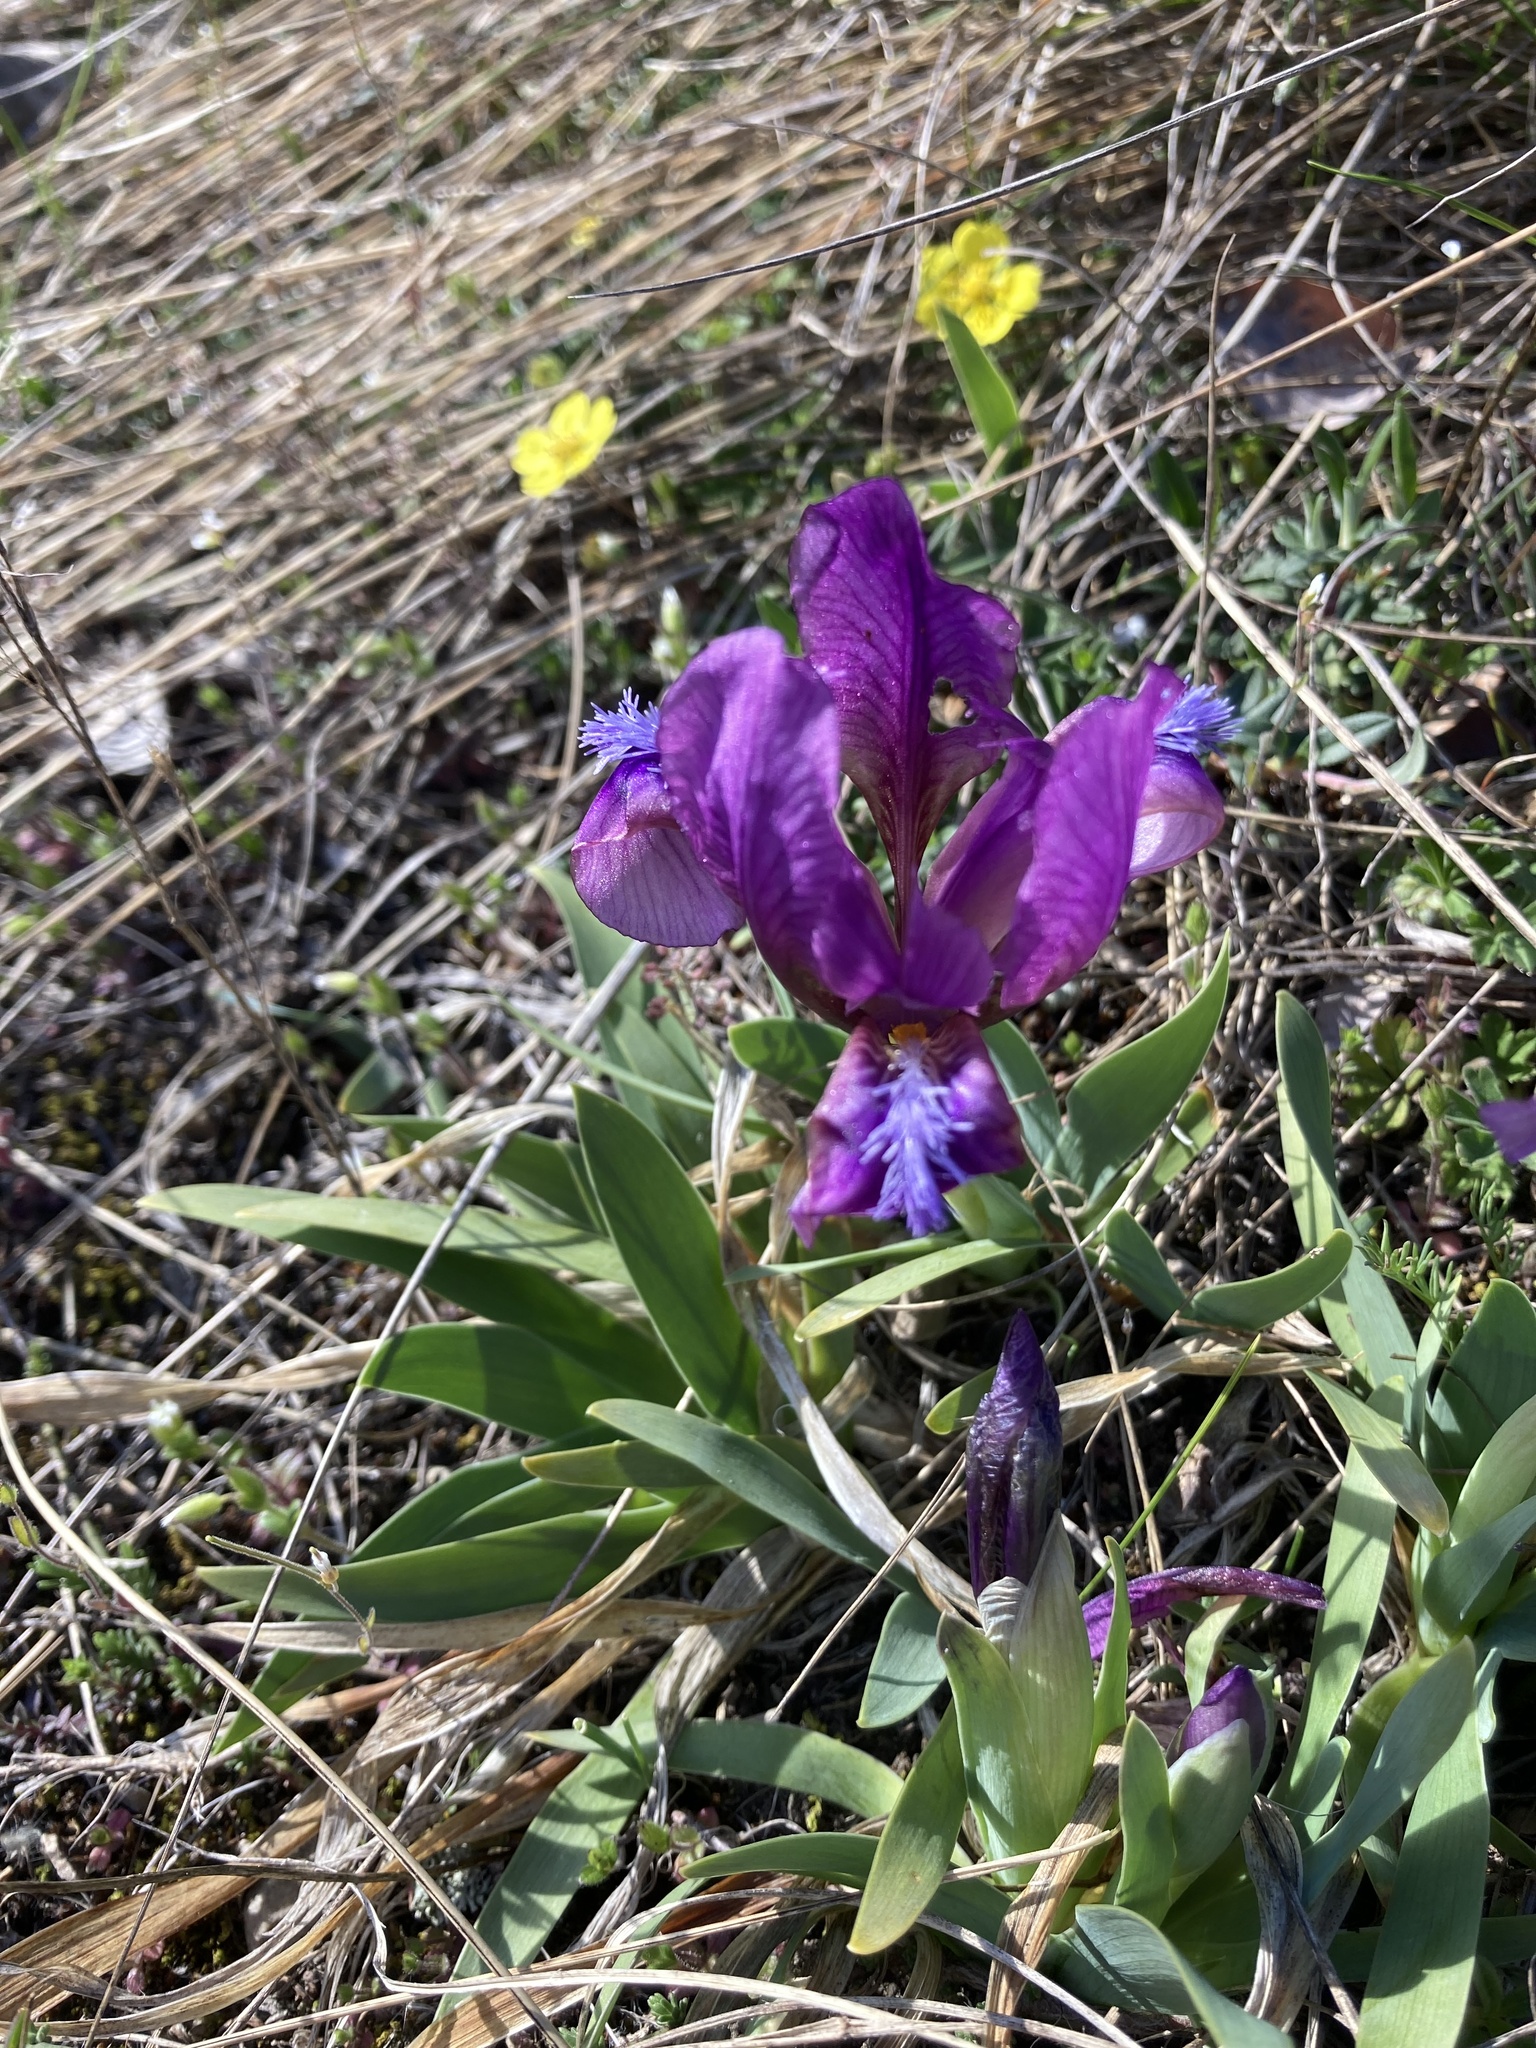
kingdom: Plantae
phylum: Tracheophyta
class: Liliopsida
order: Asparagales
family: Iridaceae
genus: Iris
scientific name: Iris pumila
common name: Dwarf iris
